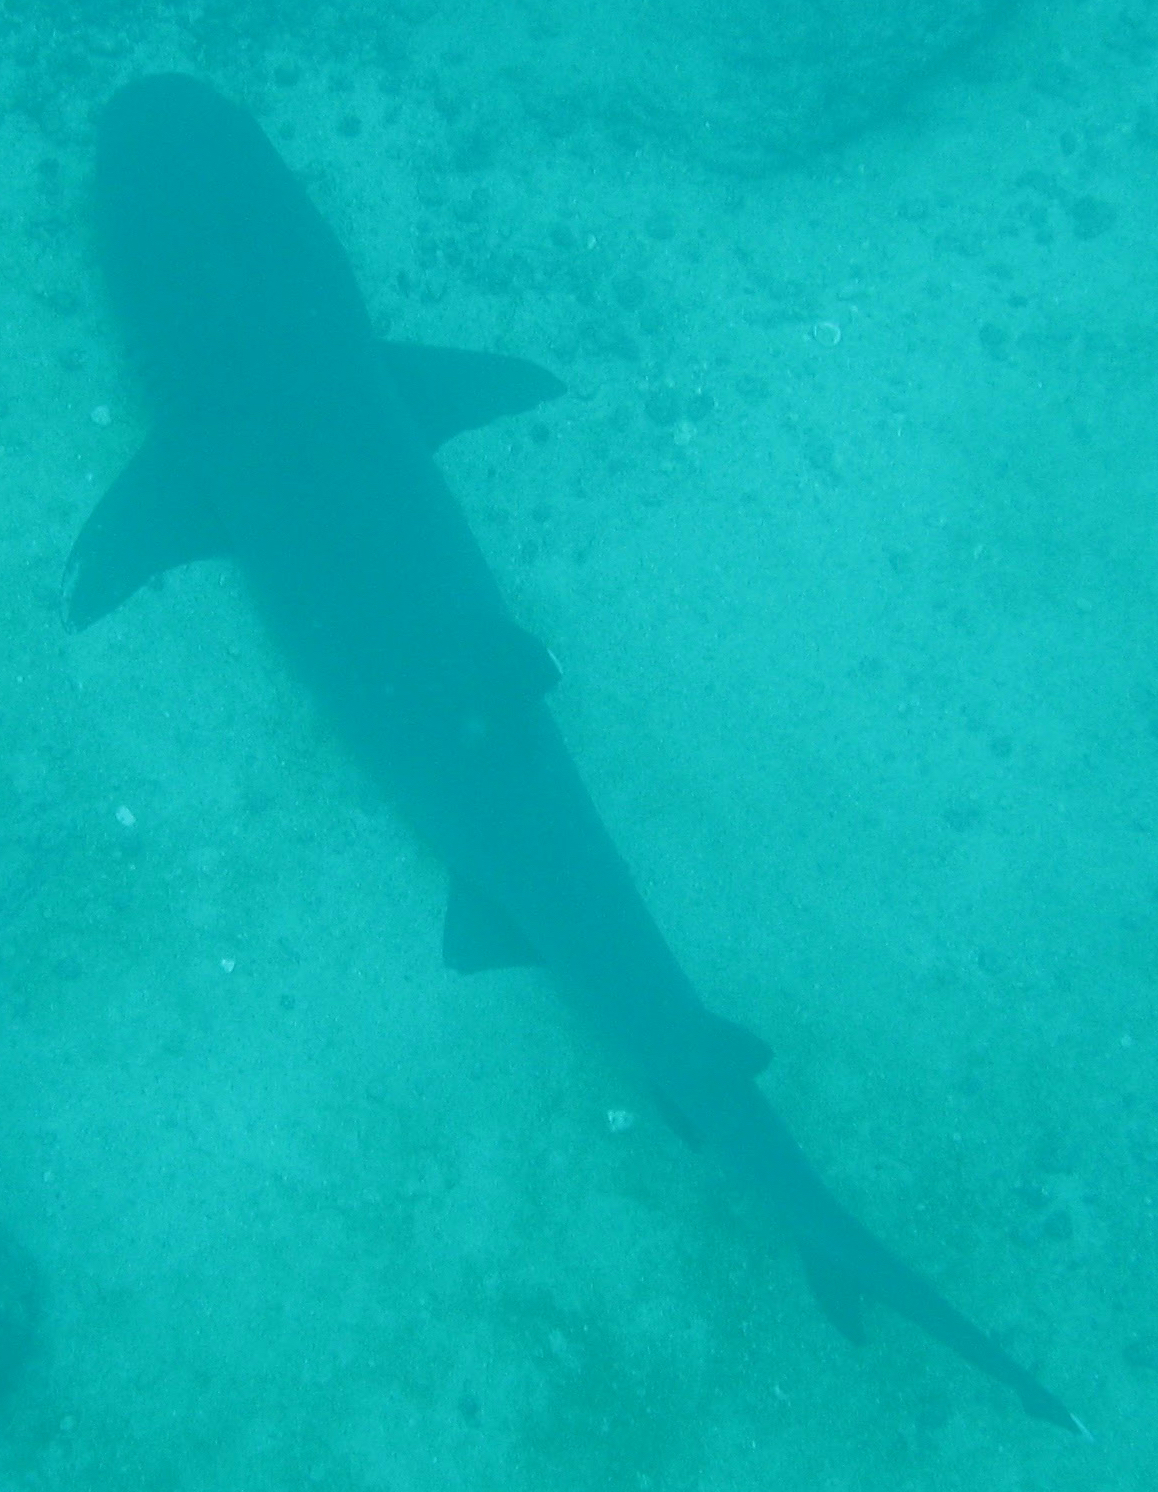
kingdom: Animalia
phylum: Chordata
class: Elasmobranchii
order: Carcharhiniformes
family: Carcharhinidae
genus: Triaenodon
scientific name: Triaenodon obesus
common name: Whitetip reef shark
